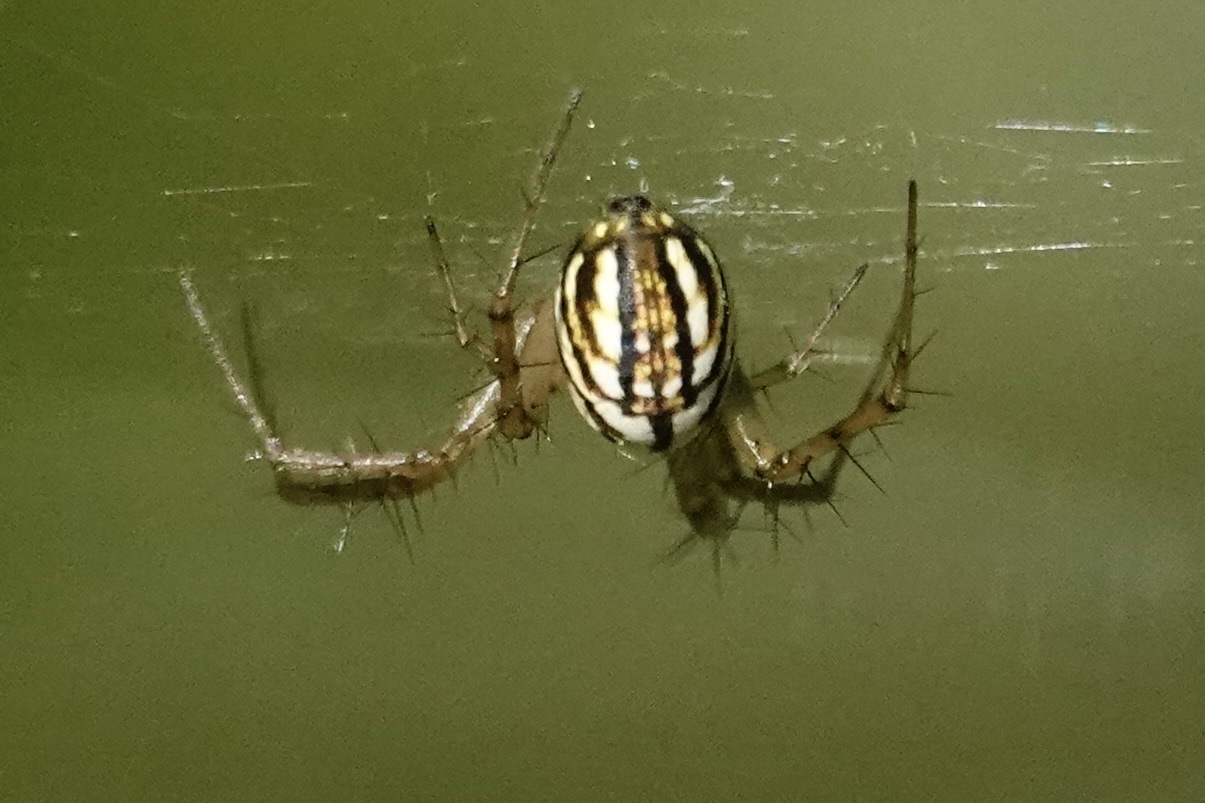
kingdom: Animalia
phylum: Arthropoda
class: Arachnida
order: Araneae
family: Araneidae
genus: Mangora
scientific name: Mangora gibberosa
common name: Lined orbweaver
